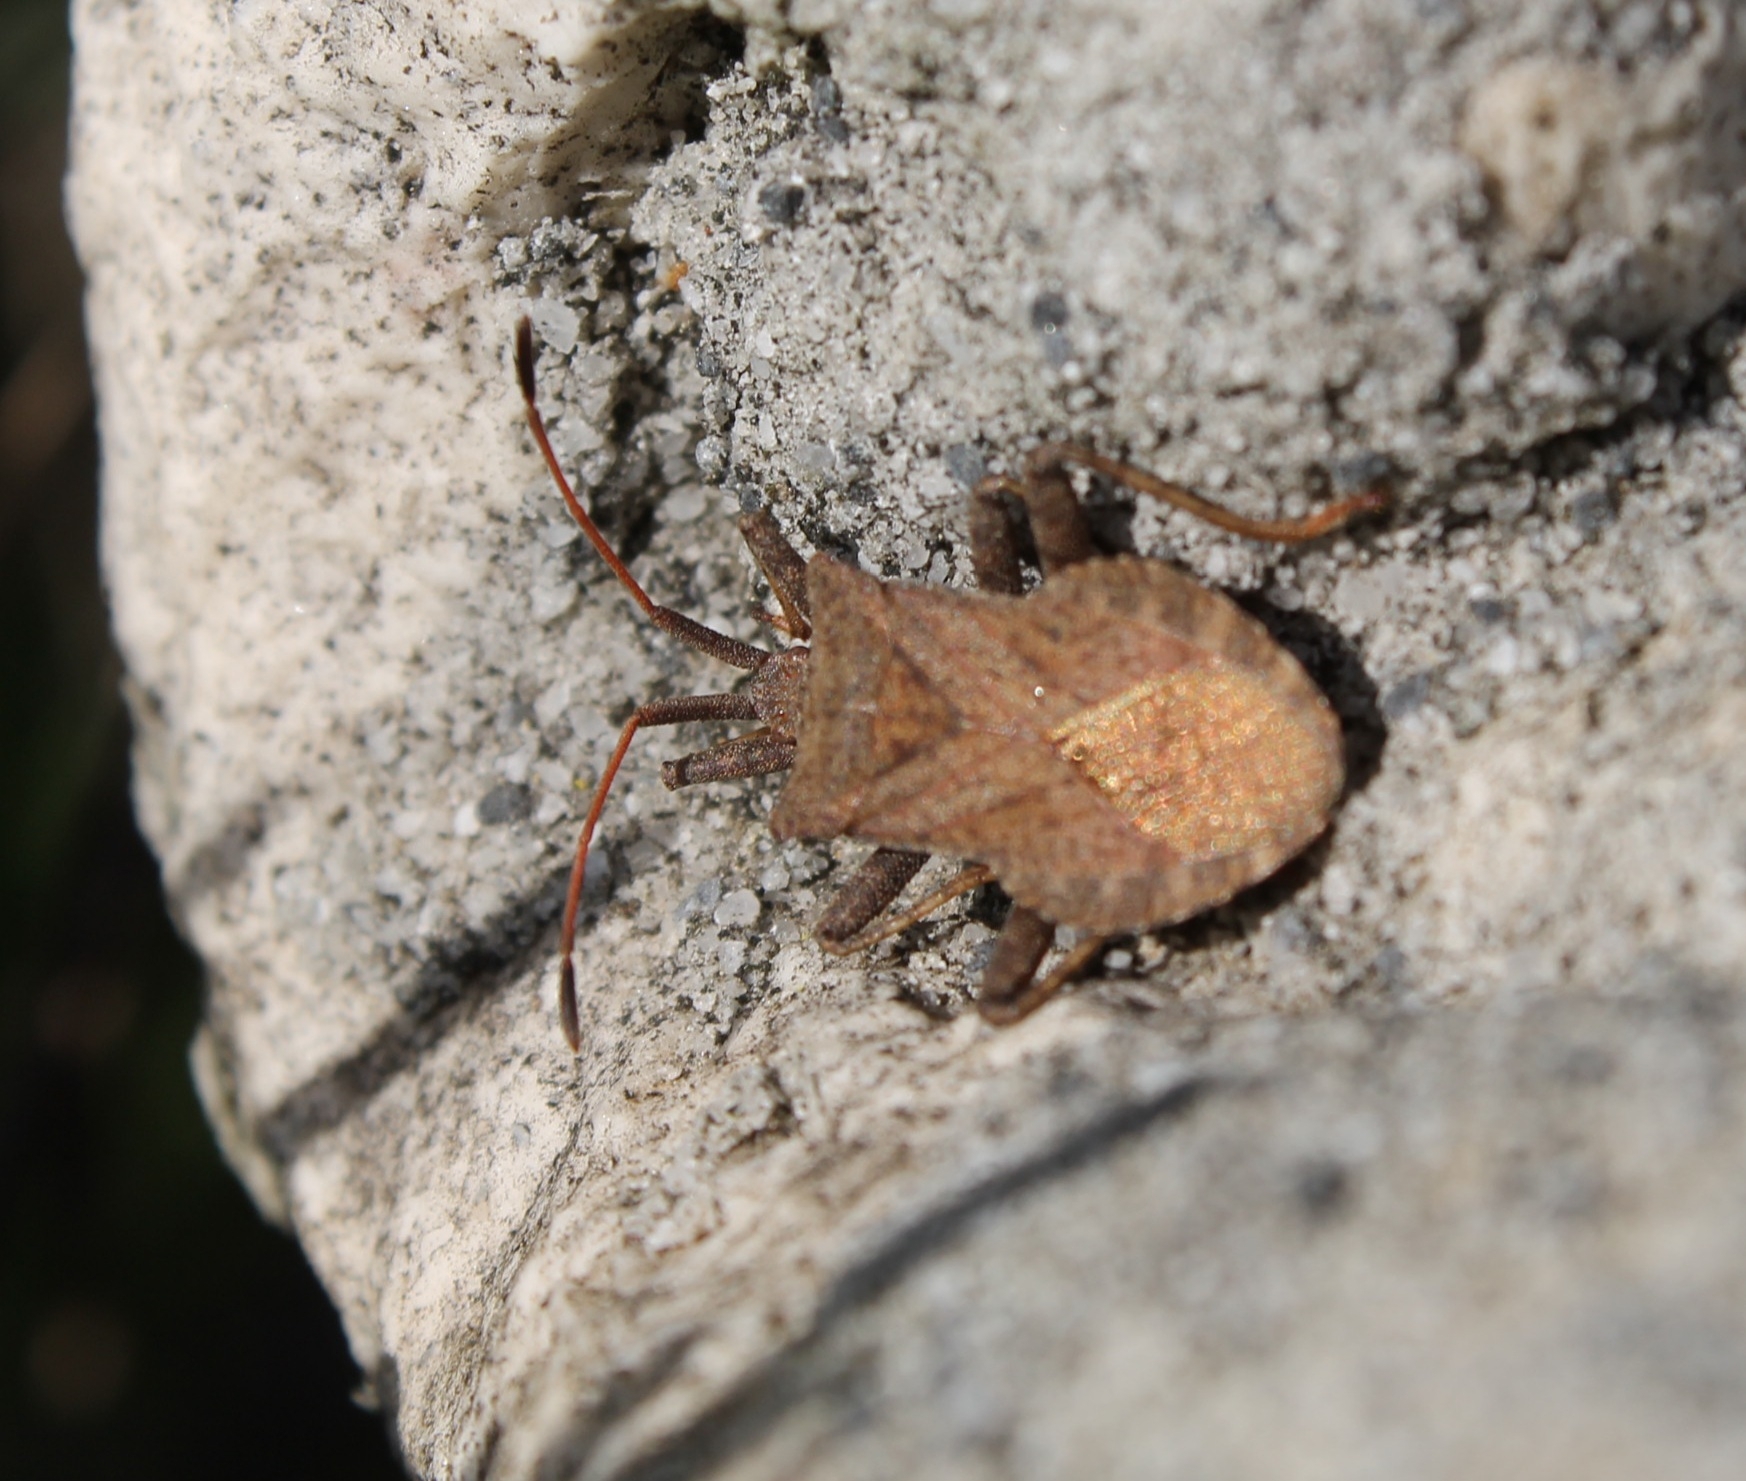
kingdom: Animalia
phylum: Arthropoda
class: Insecta
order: Hemiptera
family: Coreidae
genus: Coreus
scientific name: Coreus marginatus
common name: Dock bug
